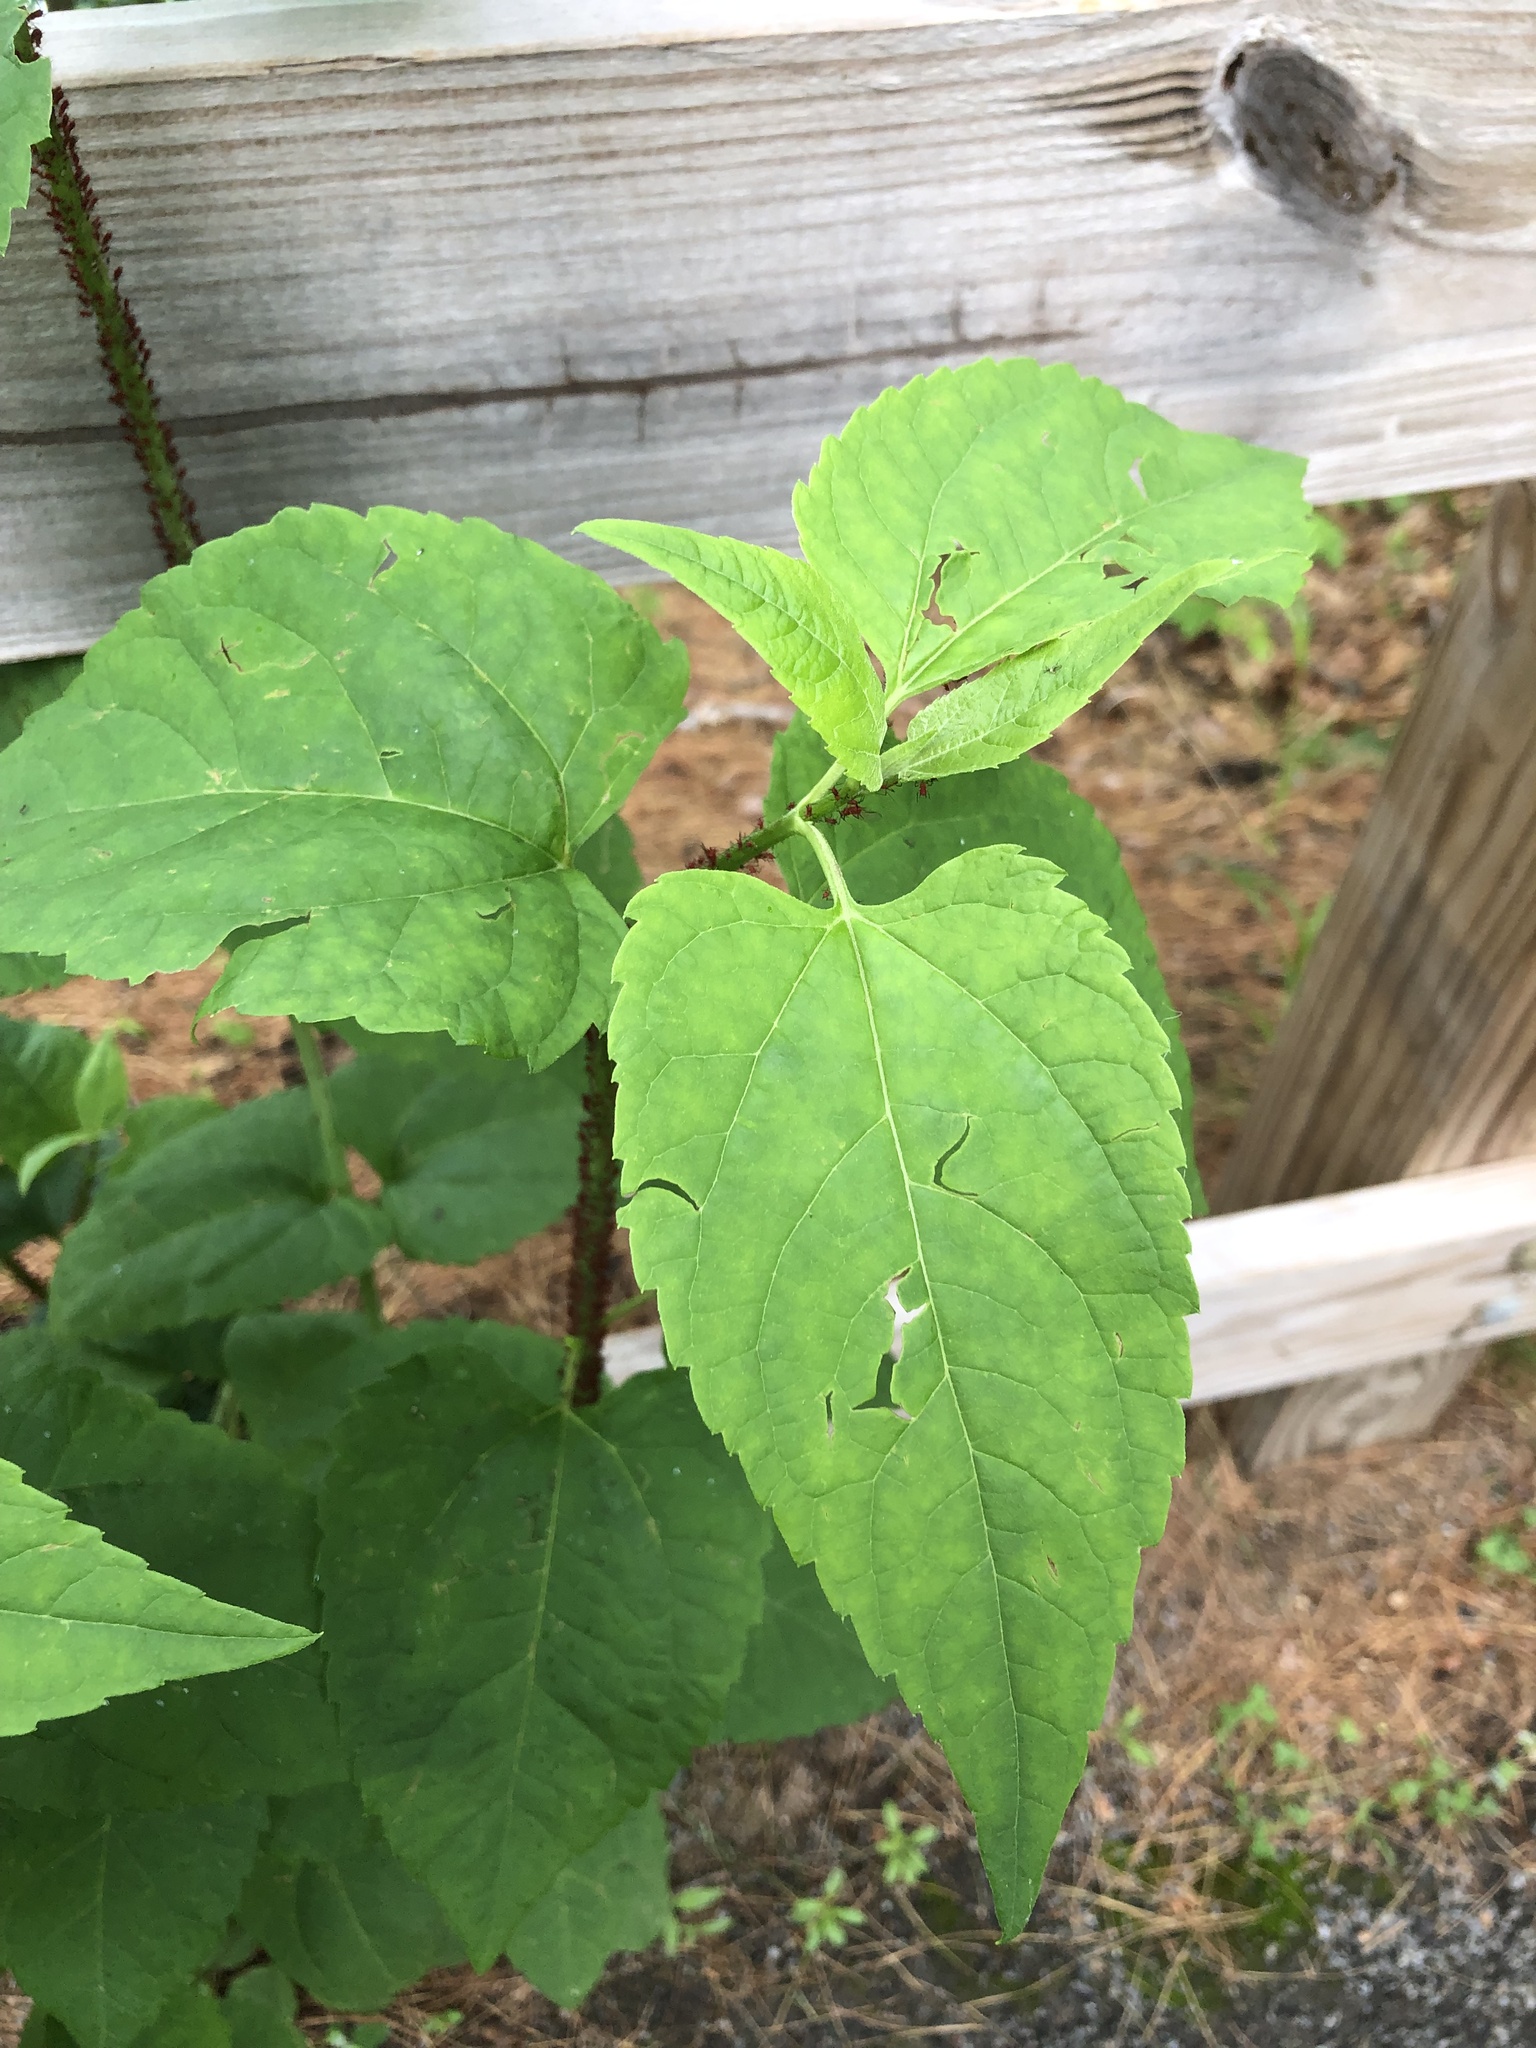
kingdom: Plantae
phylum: Tracheophyta
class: Magnoliopsida
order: Asterales
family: Asteraceae
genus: Ageratina
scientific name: Ageratina altissima
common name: White snakeroot
